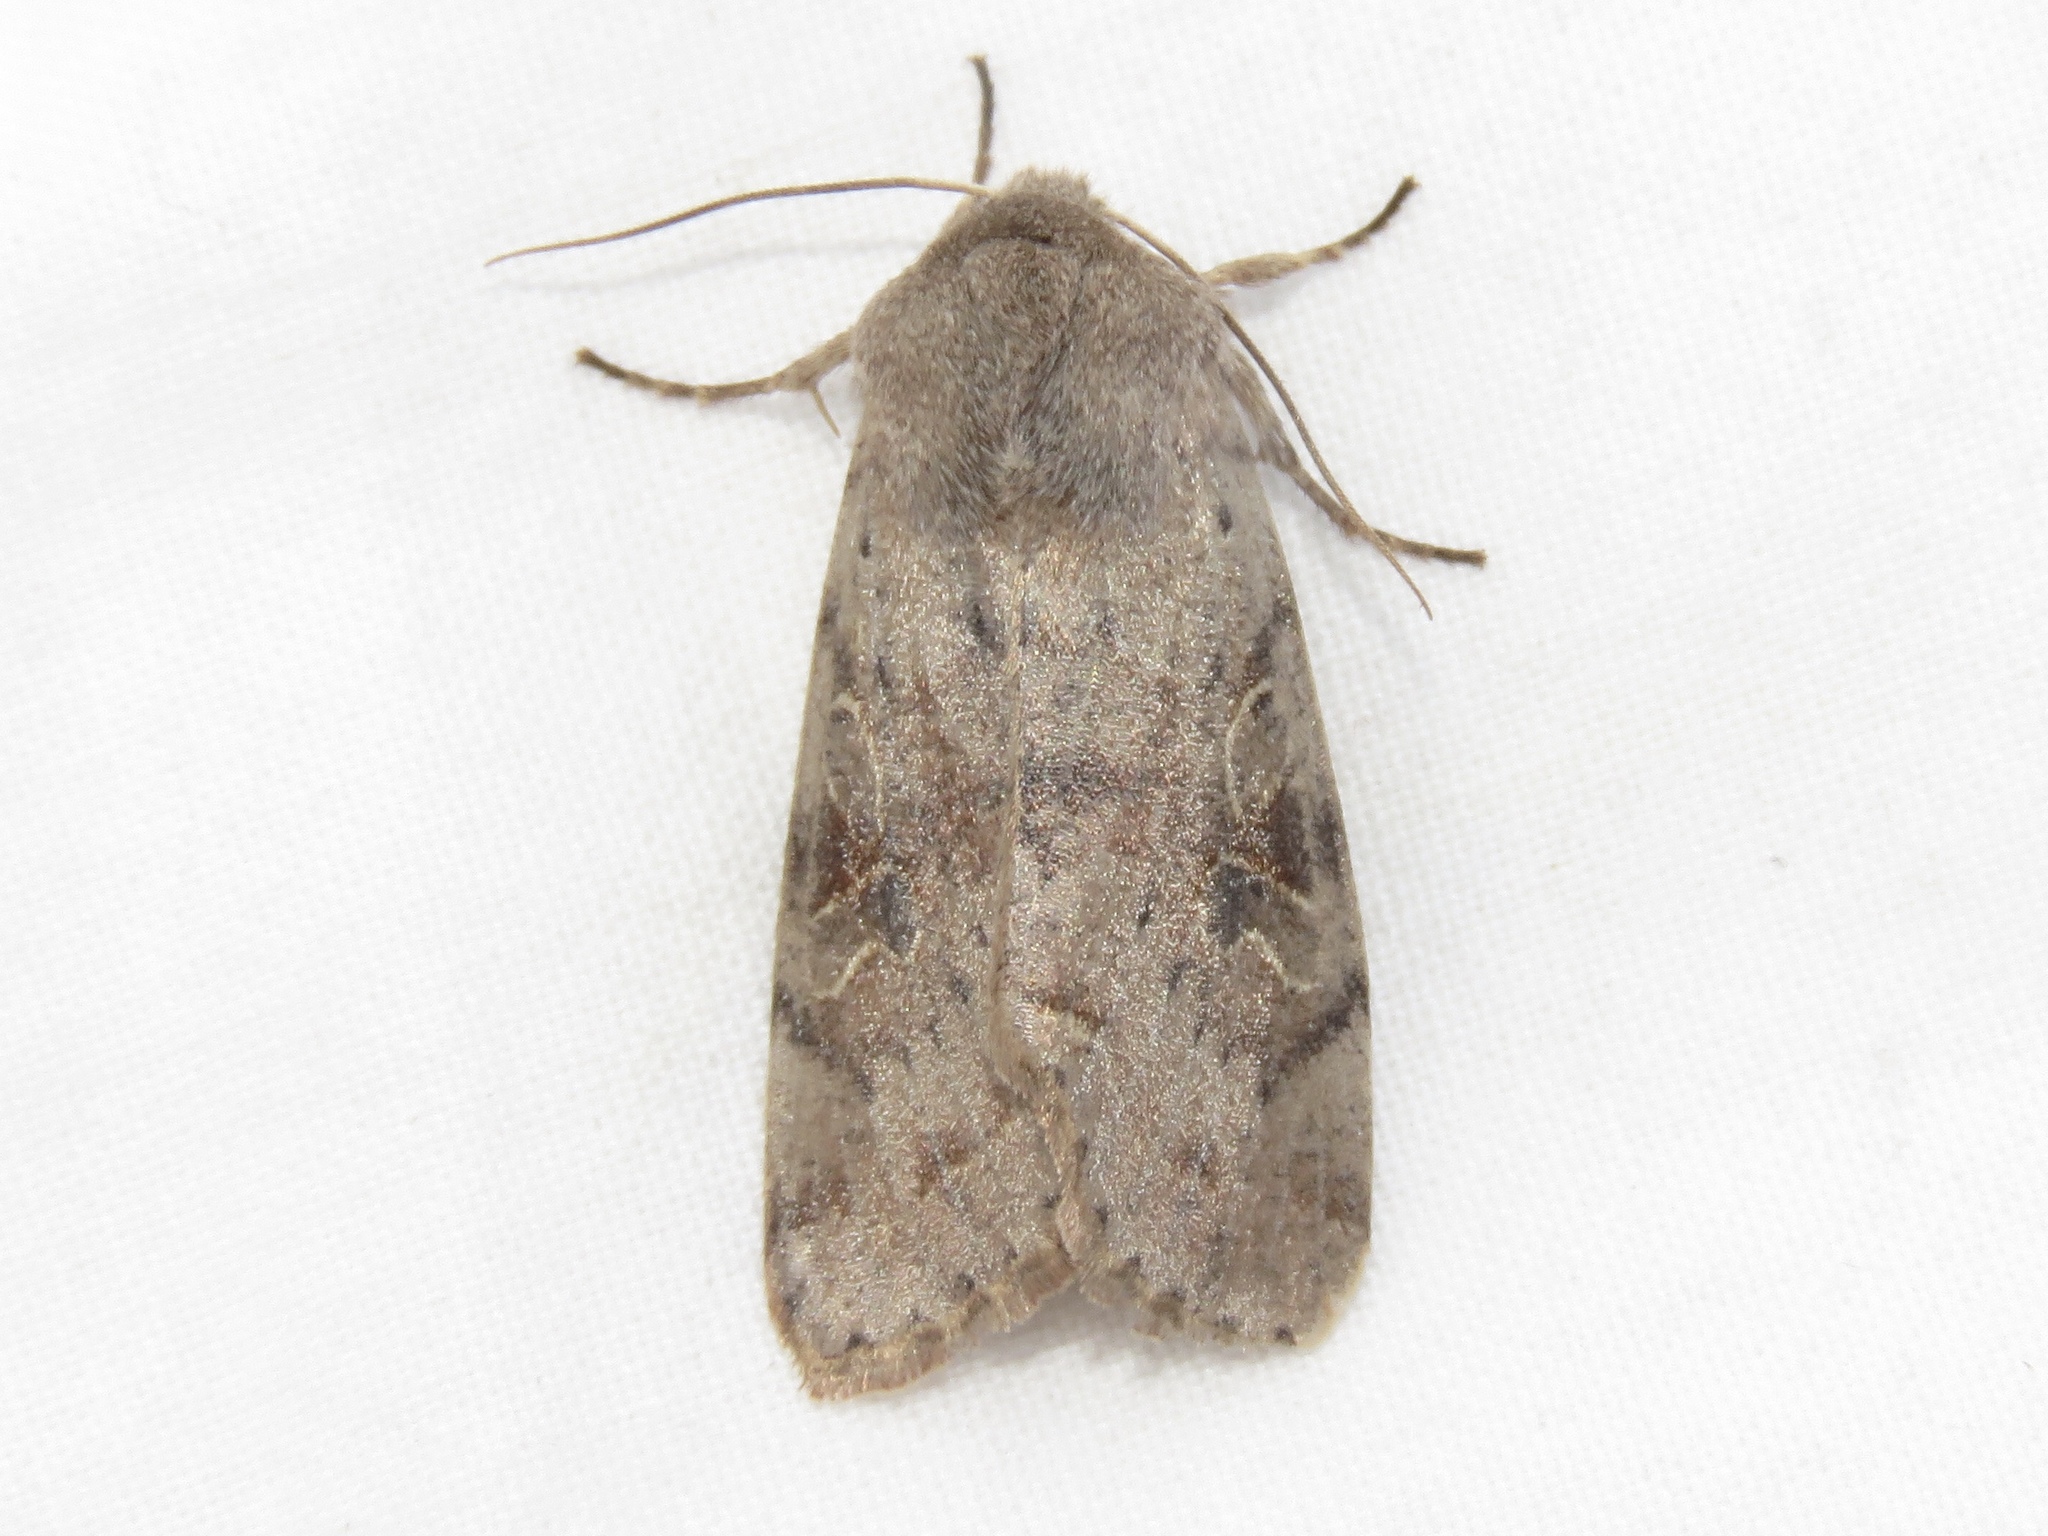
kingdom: Animalia
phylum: Arthropoda
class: Insecta
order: Lepidoptera
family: Noctuidae
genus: Orthosia
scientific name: Orthosia hibisci
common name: Green fruitworm
